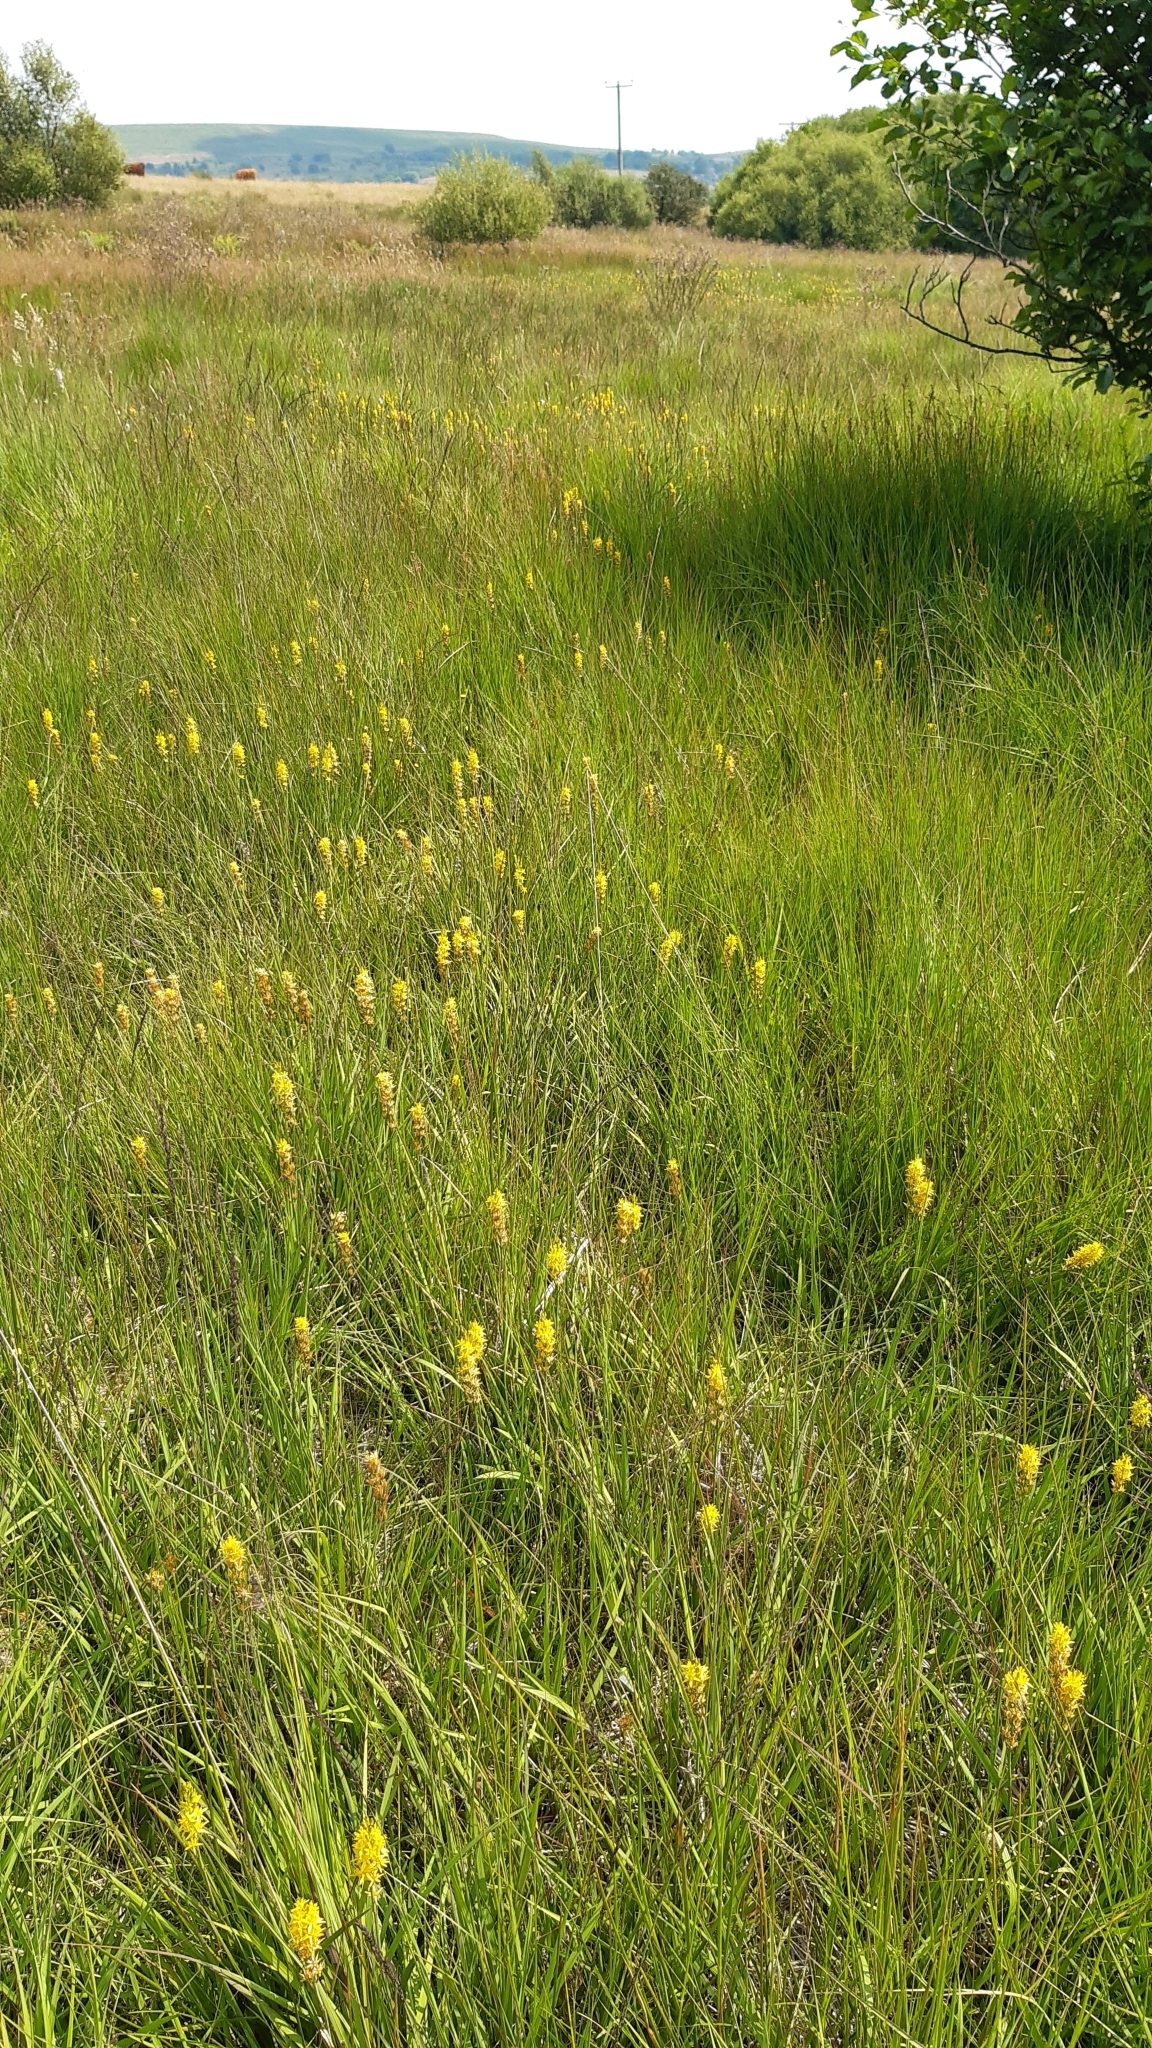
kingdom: Plantae
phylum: Tracheophyta
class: Liliopsida
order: Dioscoreales
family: Nartheciaceae
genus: Narthecium
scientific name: Narthecium ossifragum
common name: Bog asphodel
